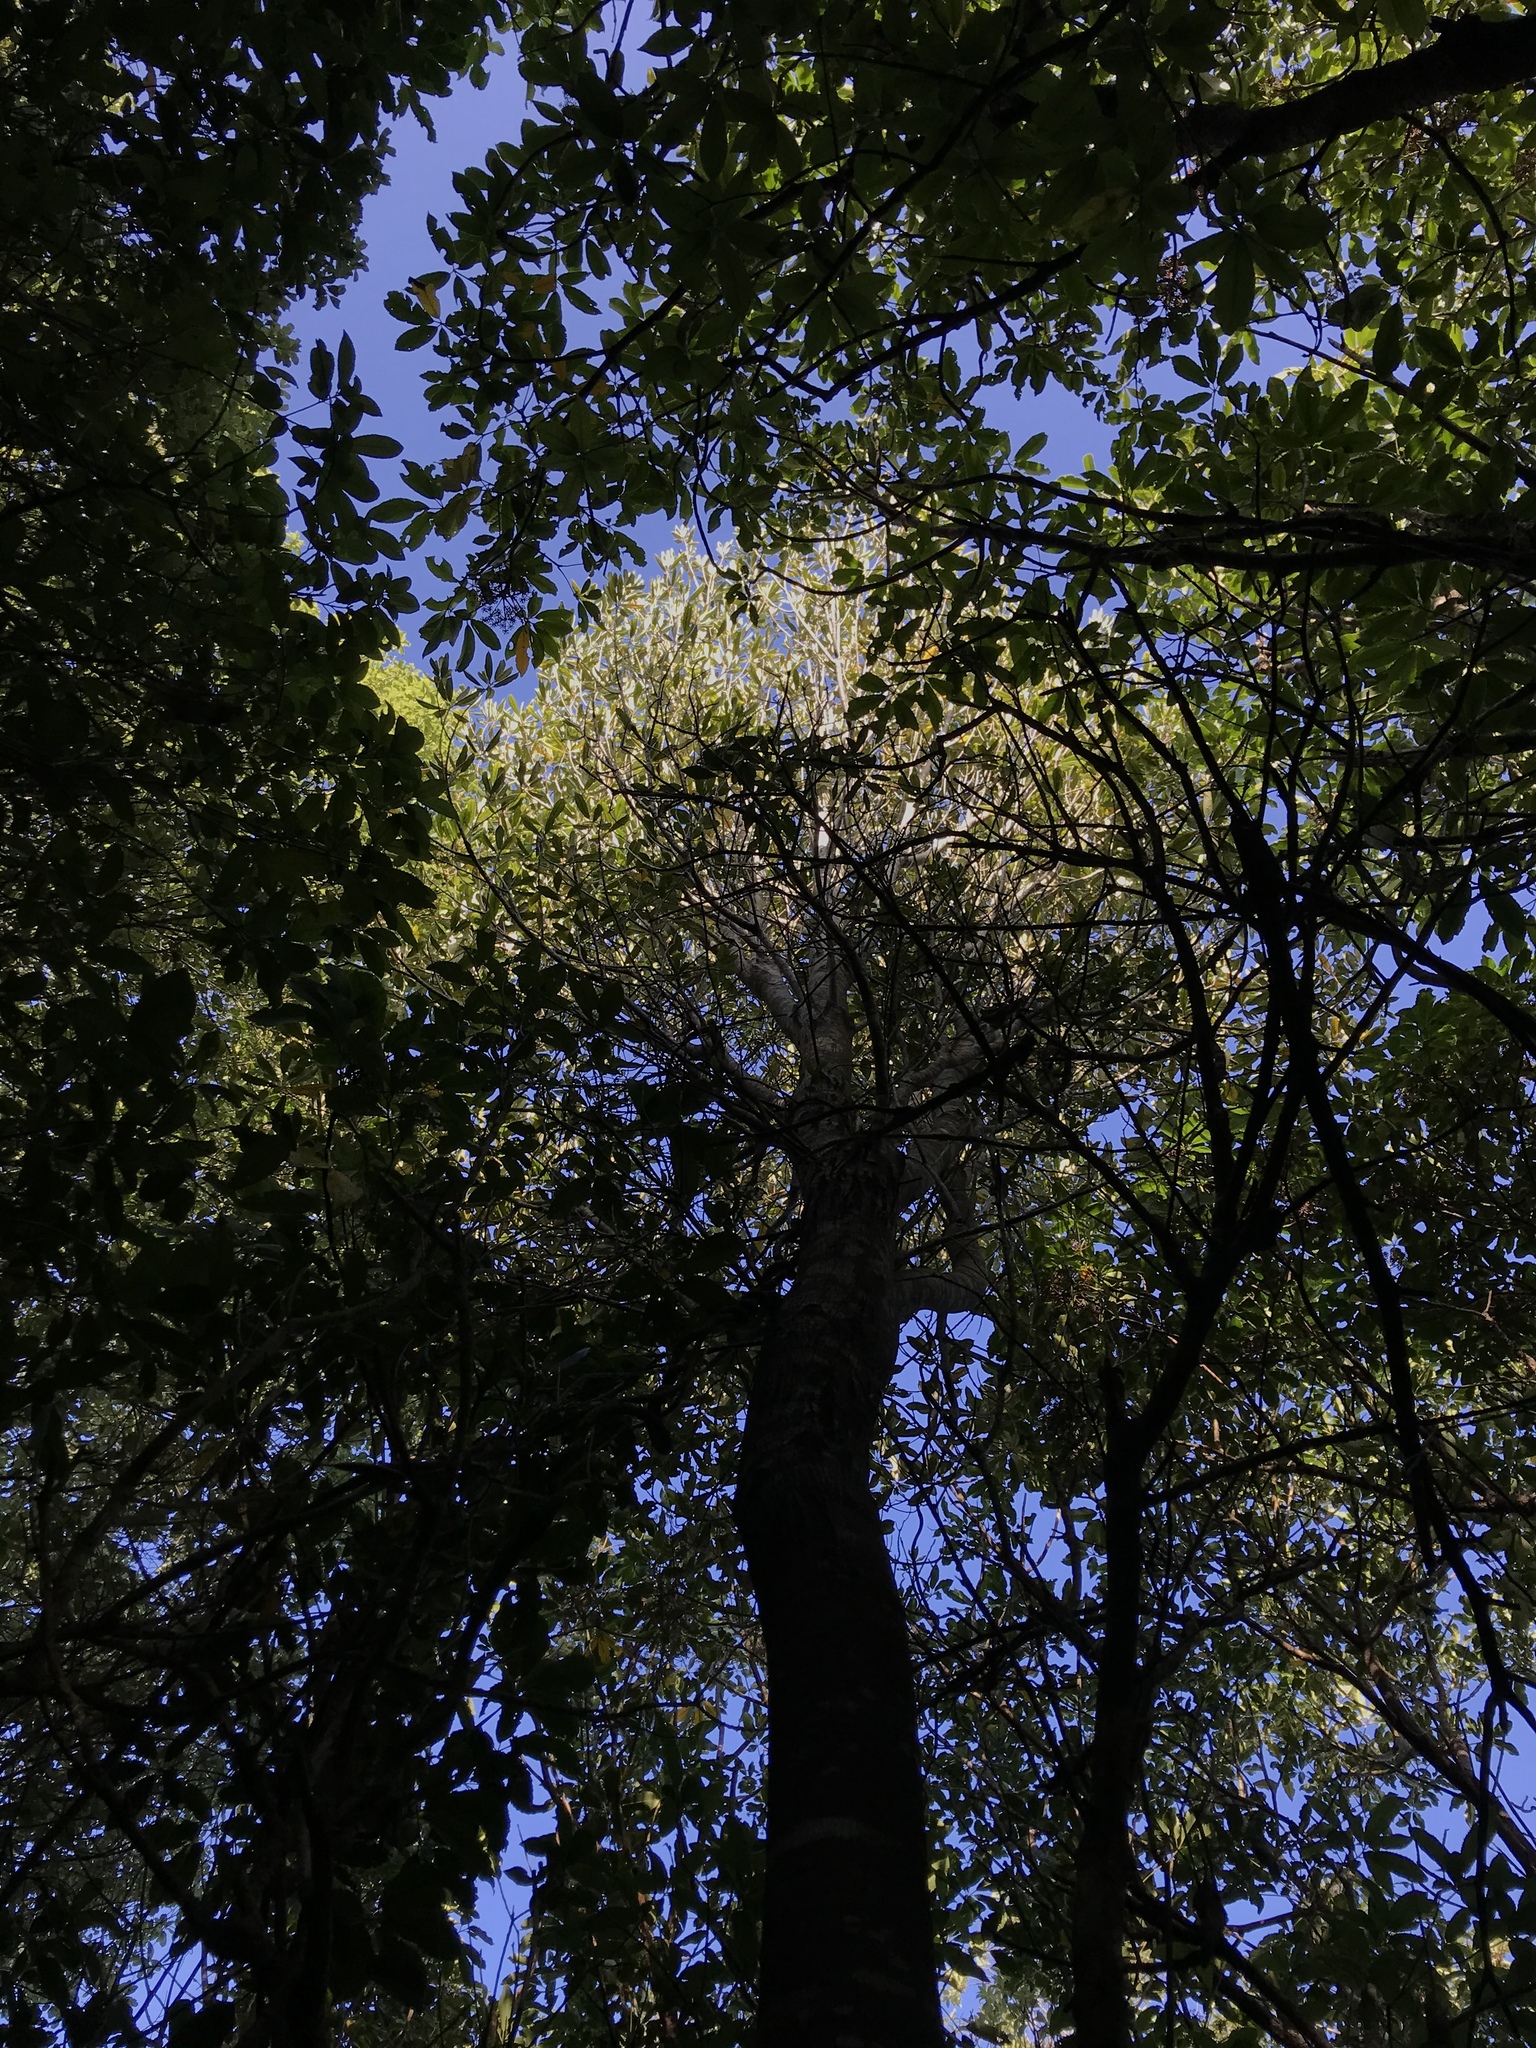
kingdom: Plantae
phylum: Tracheophyta
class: Magnoliopsida
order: Oxalidales
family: Elaeocarpaceae
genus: Elaeocarpus
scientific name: Elaeocarpus dentatus
